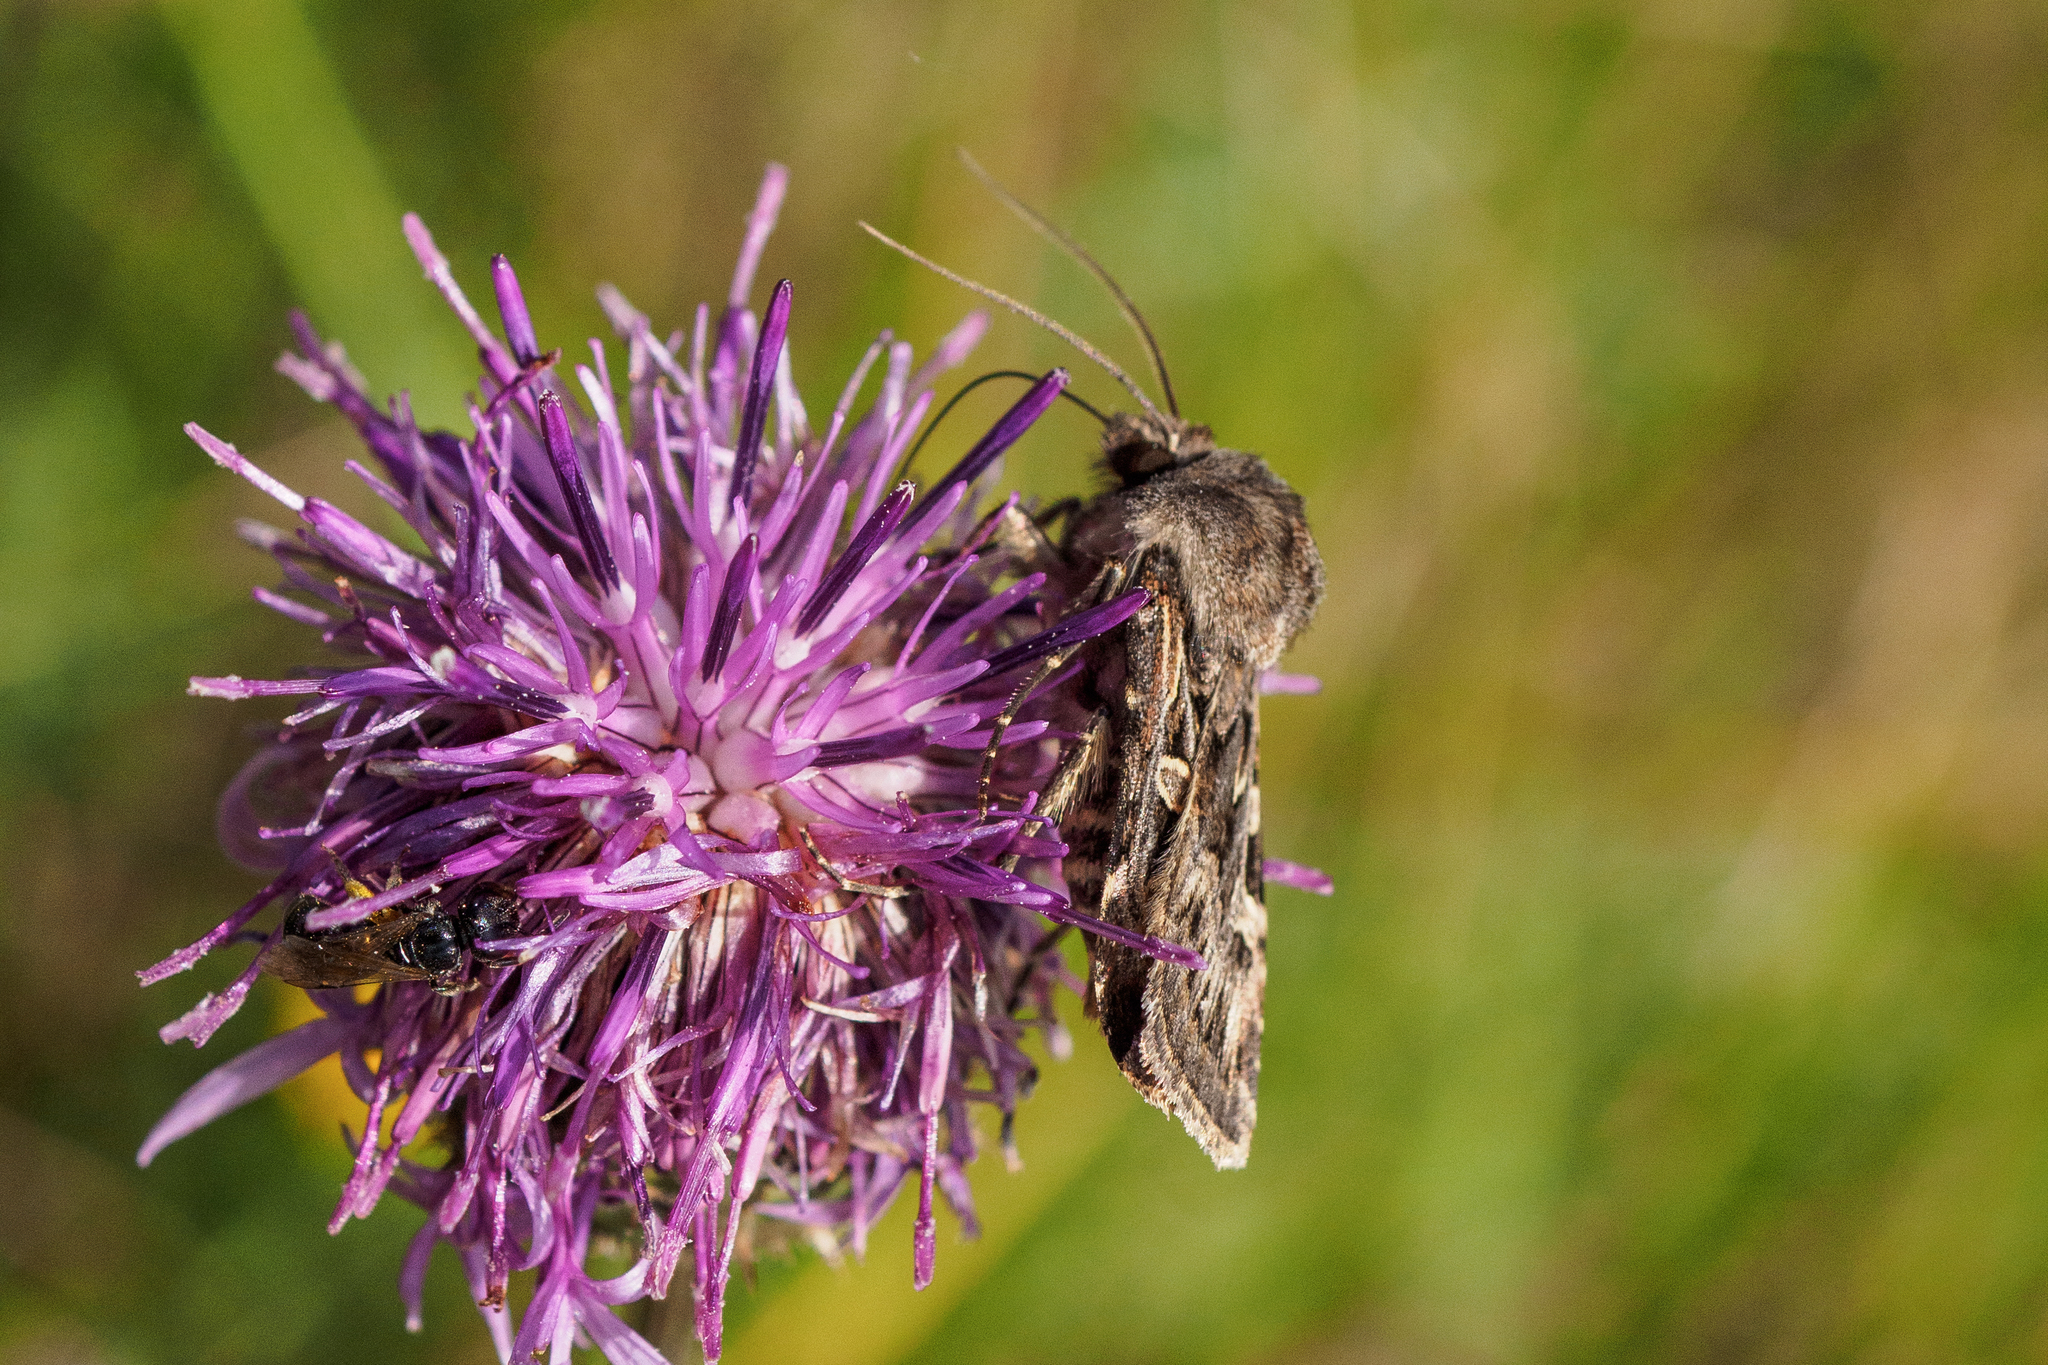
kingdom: Animalia
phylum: Arthropoda
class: Insecta
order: Lepidoptera
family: Noctuidae
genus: Chersotis
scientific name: Chersotis transiens
